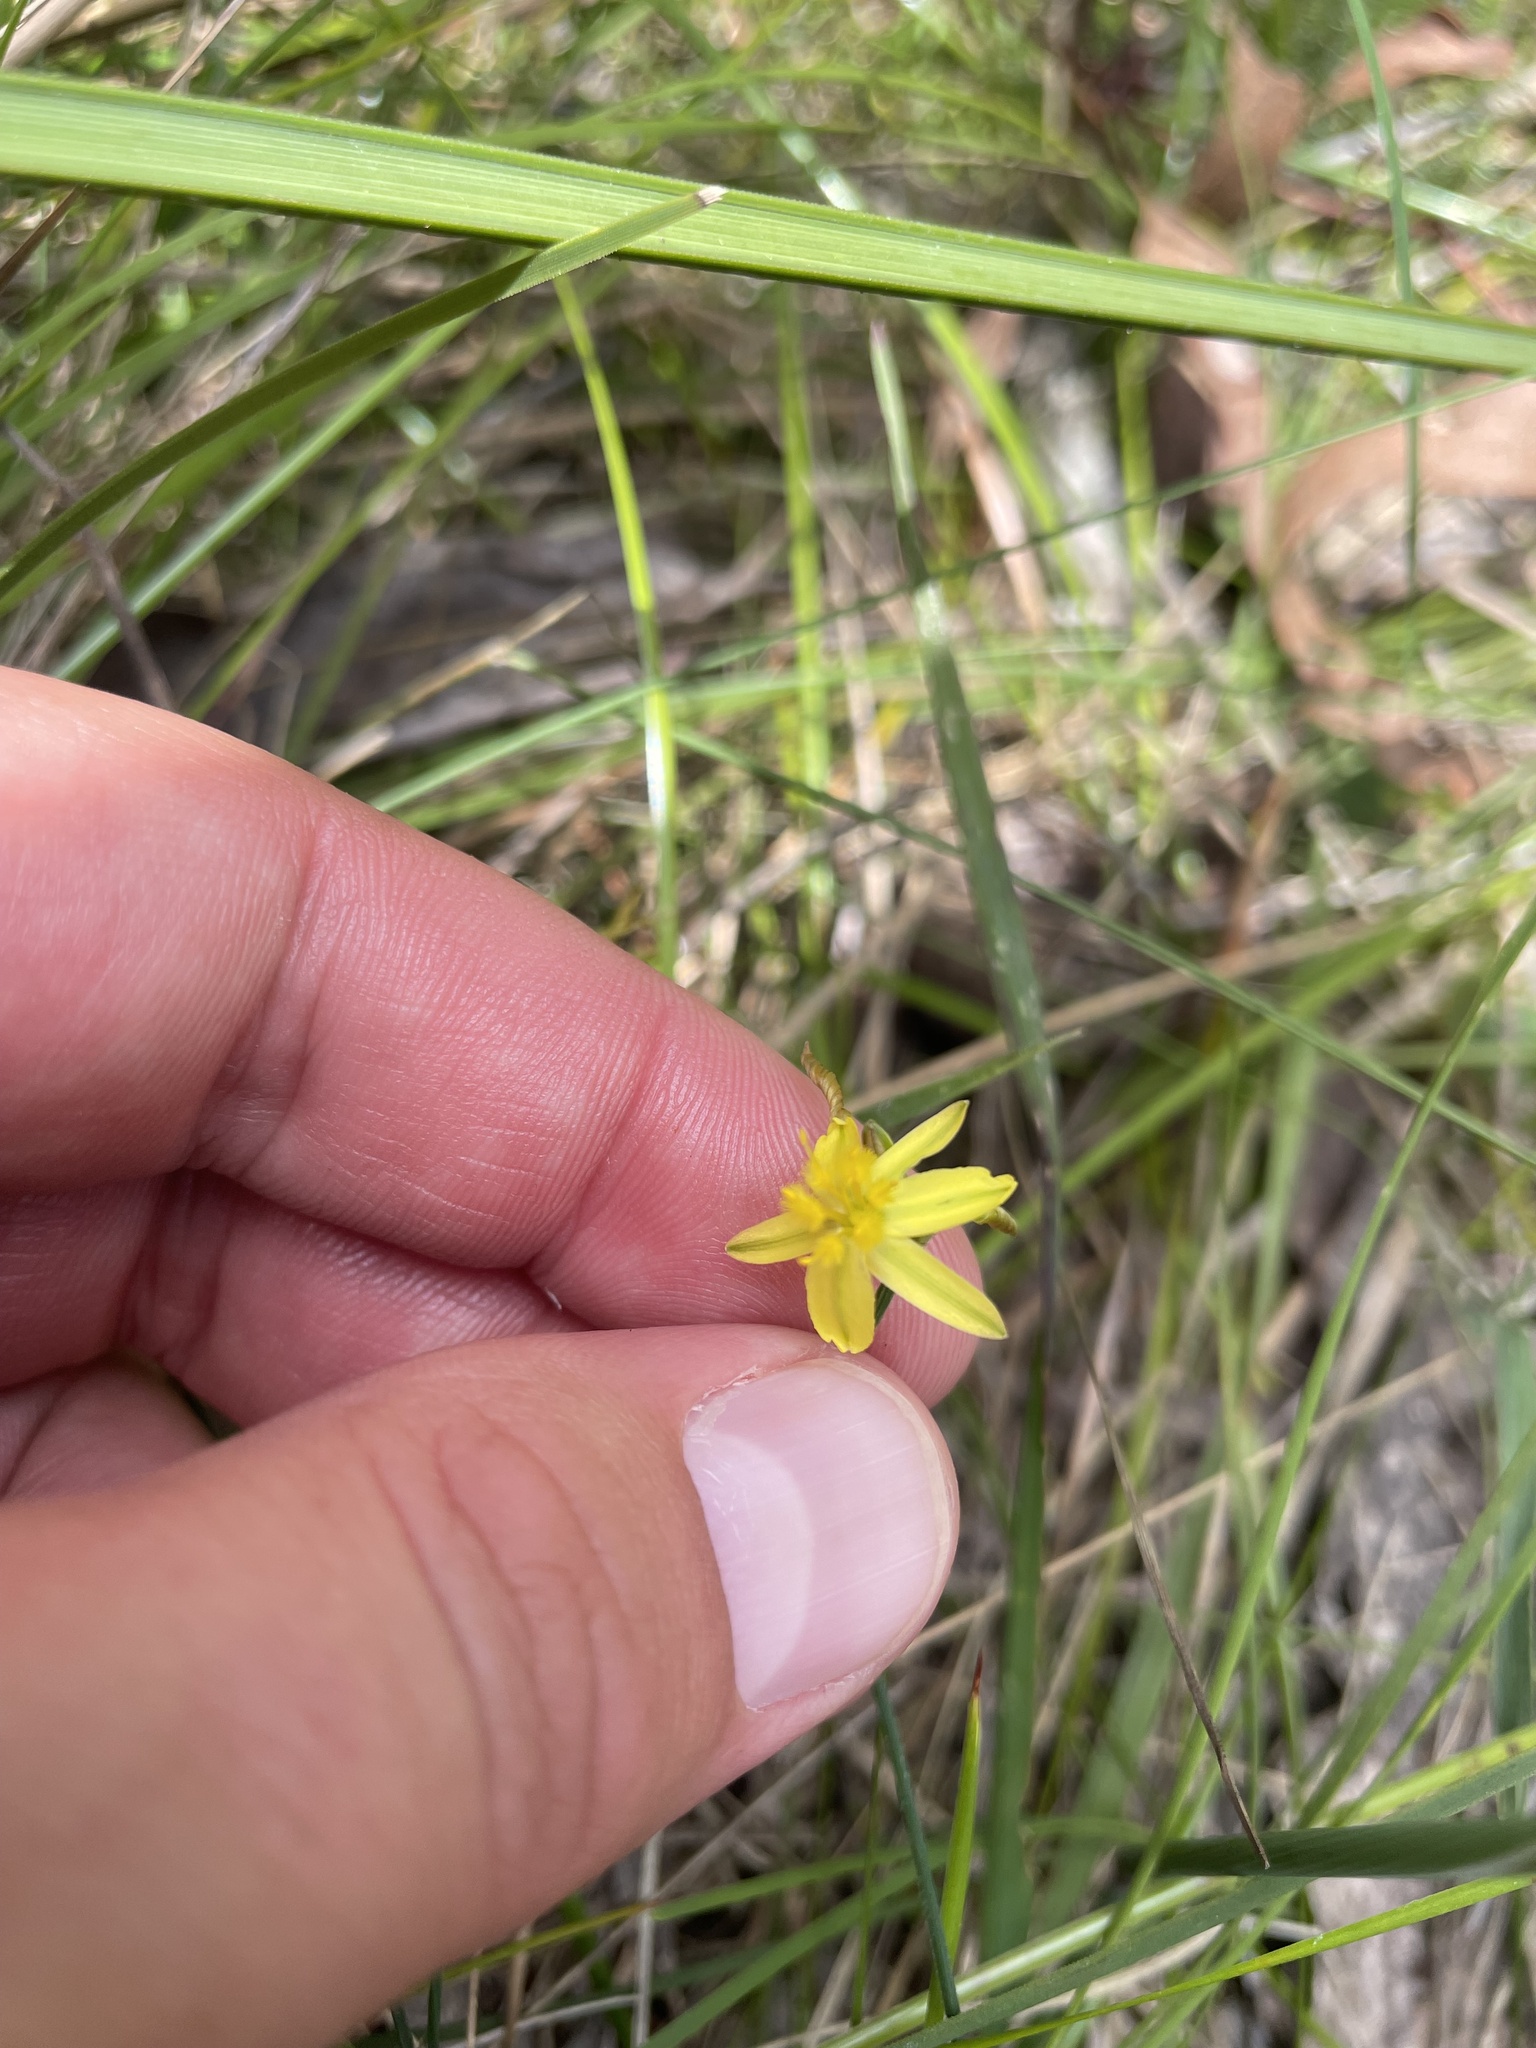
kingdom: Plantae
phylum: Tracheophyta
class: Liliopsida
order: Asparagales
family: Asphodelaceae
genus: Tricoryne
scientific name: Tricoryne elatior
